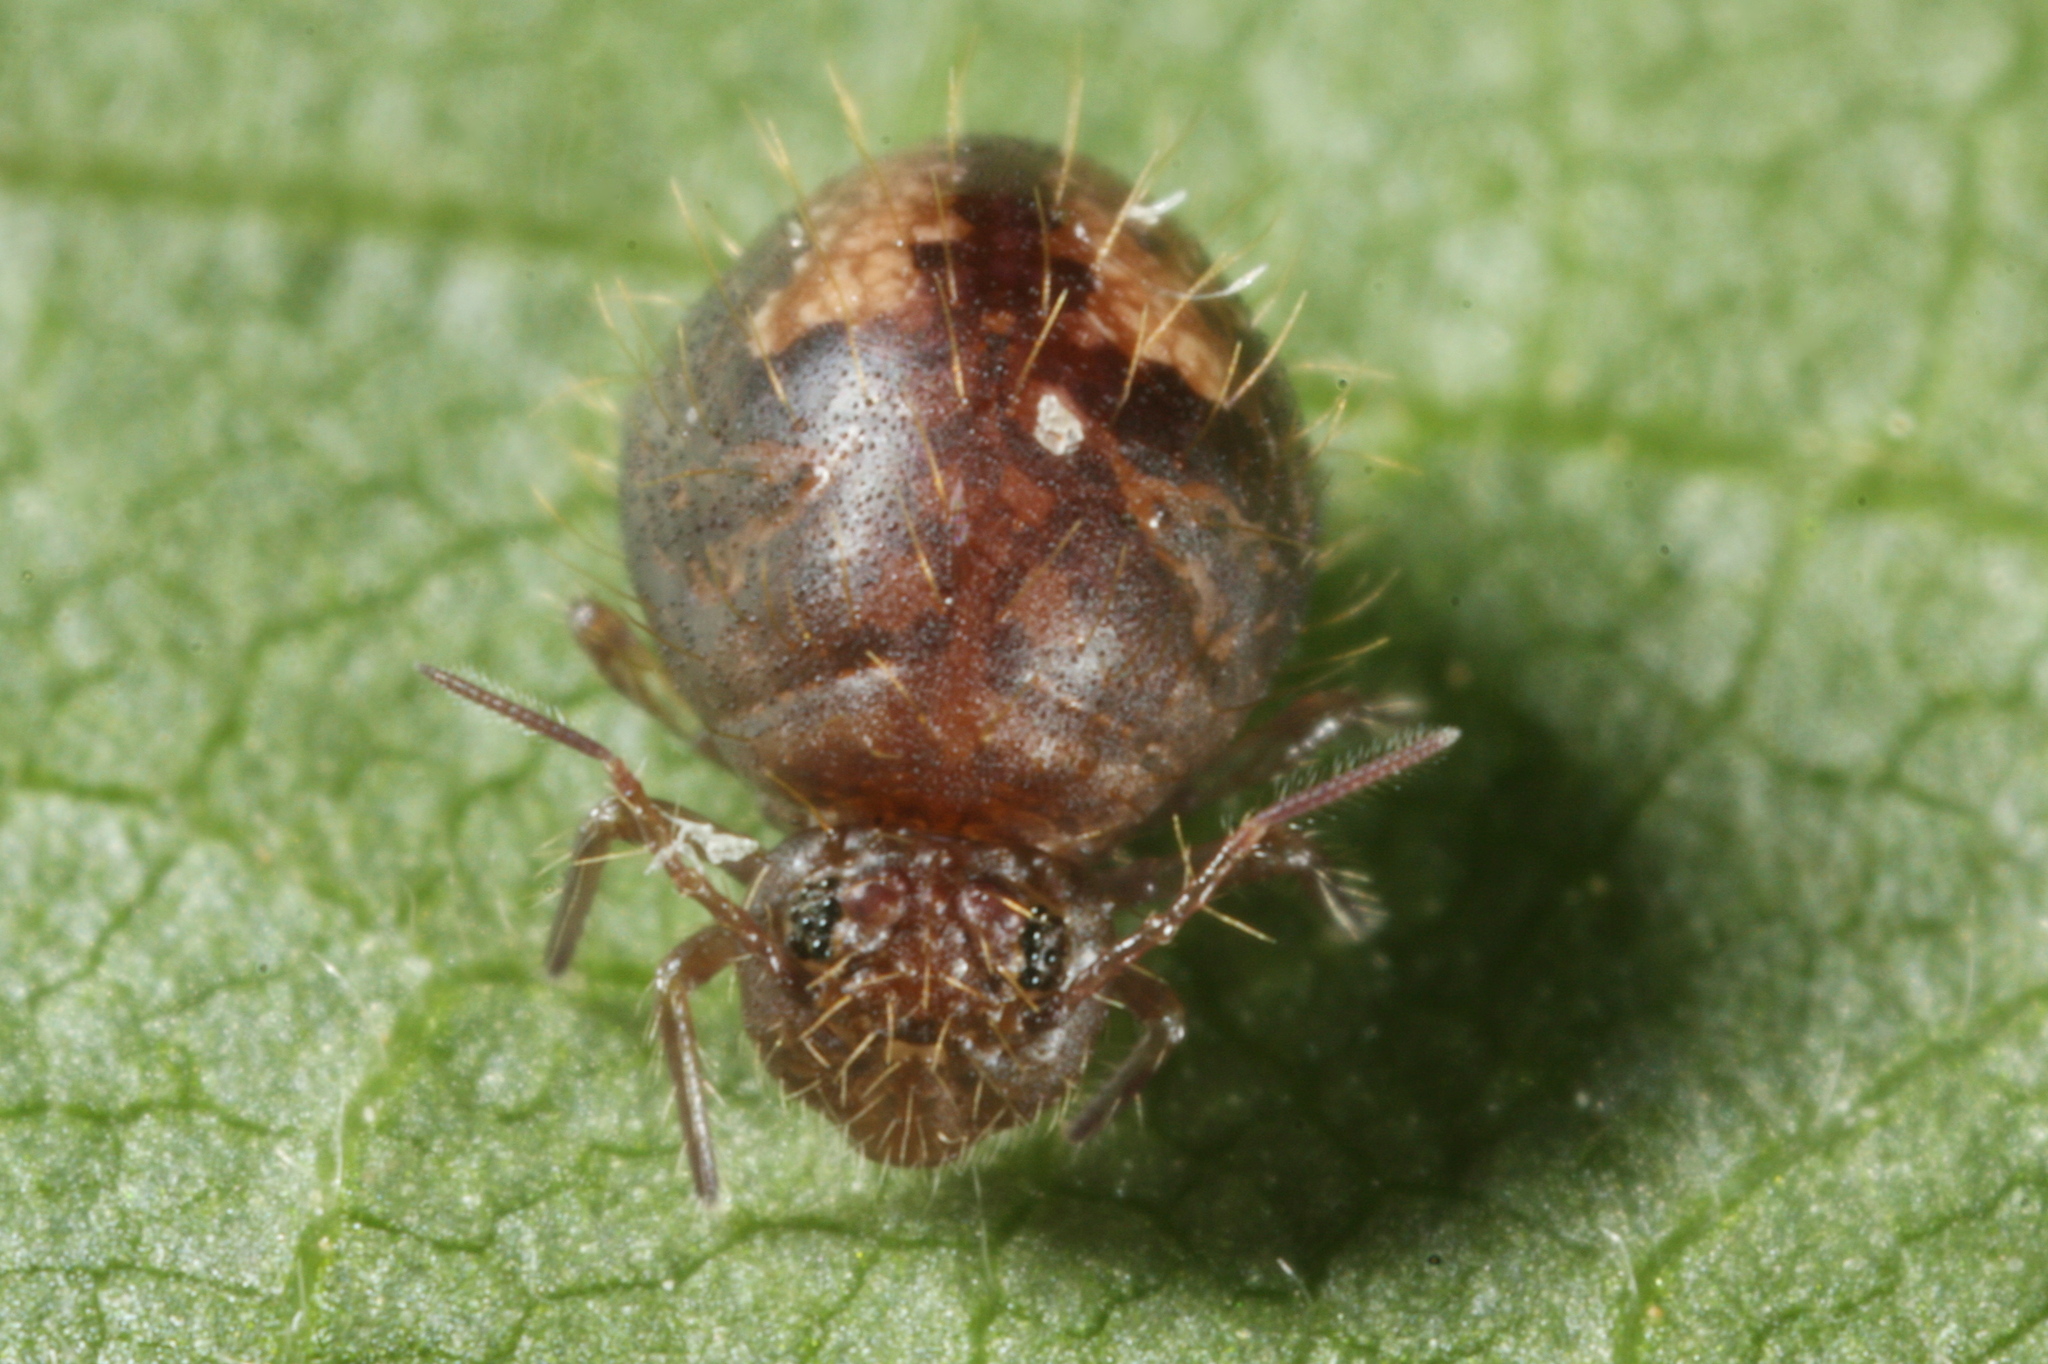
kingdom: Animalia
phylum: Arthropoda
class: Collembola
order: Symphypleona
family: Sminthuridae
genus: Allacma
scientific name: Allacma fusca
